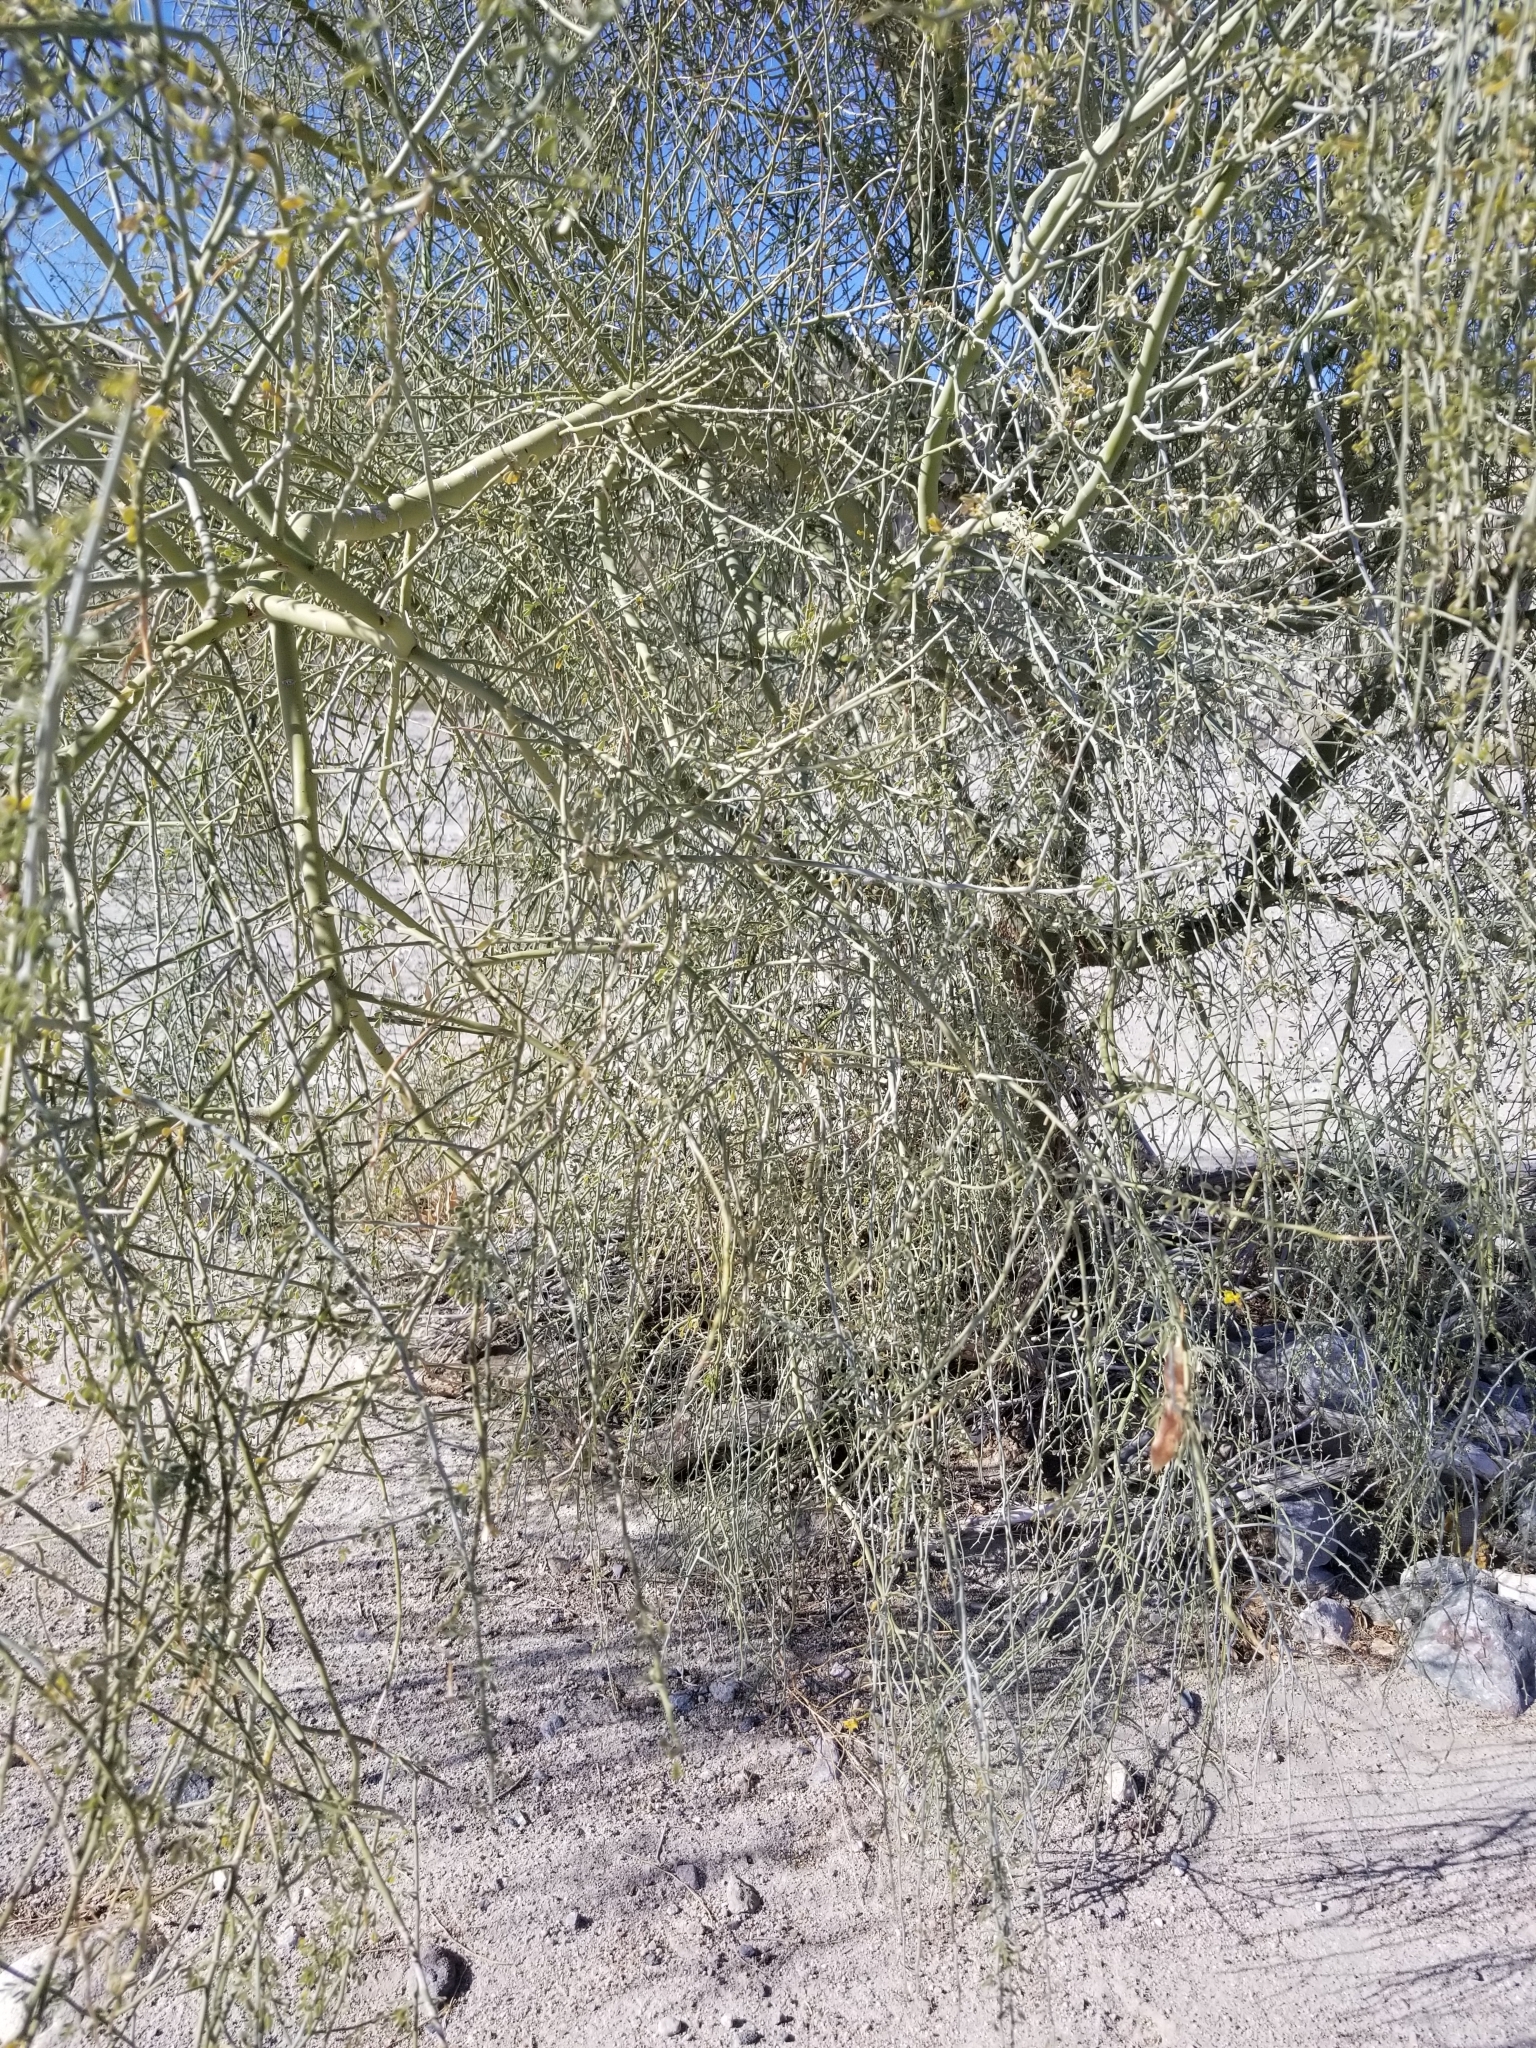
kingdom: Plantae
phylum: Tracheophyta
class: Magnoliopsida
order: Fabales
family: Fabaceae
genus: Parkinsonia
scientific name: Parkinsonia florida
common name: Blue paloverde
